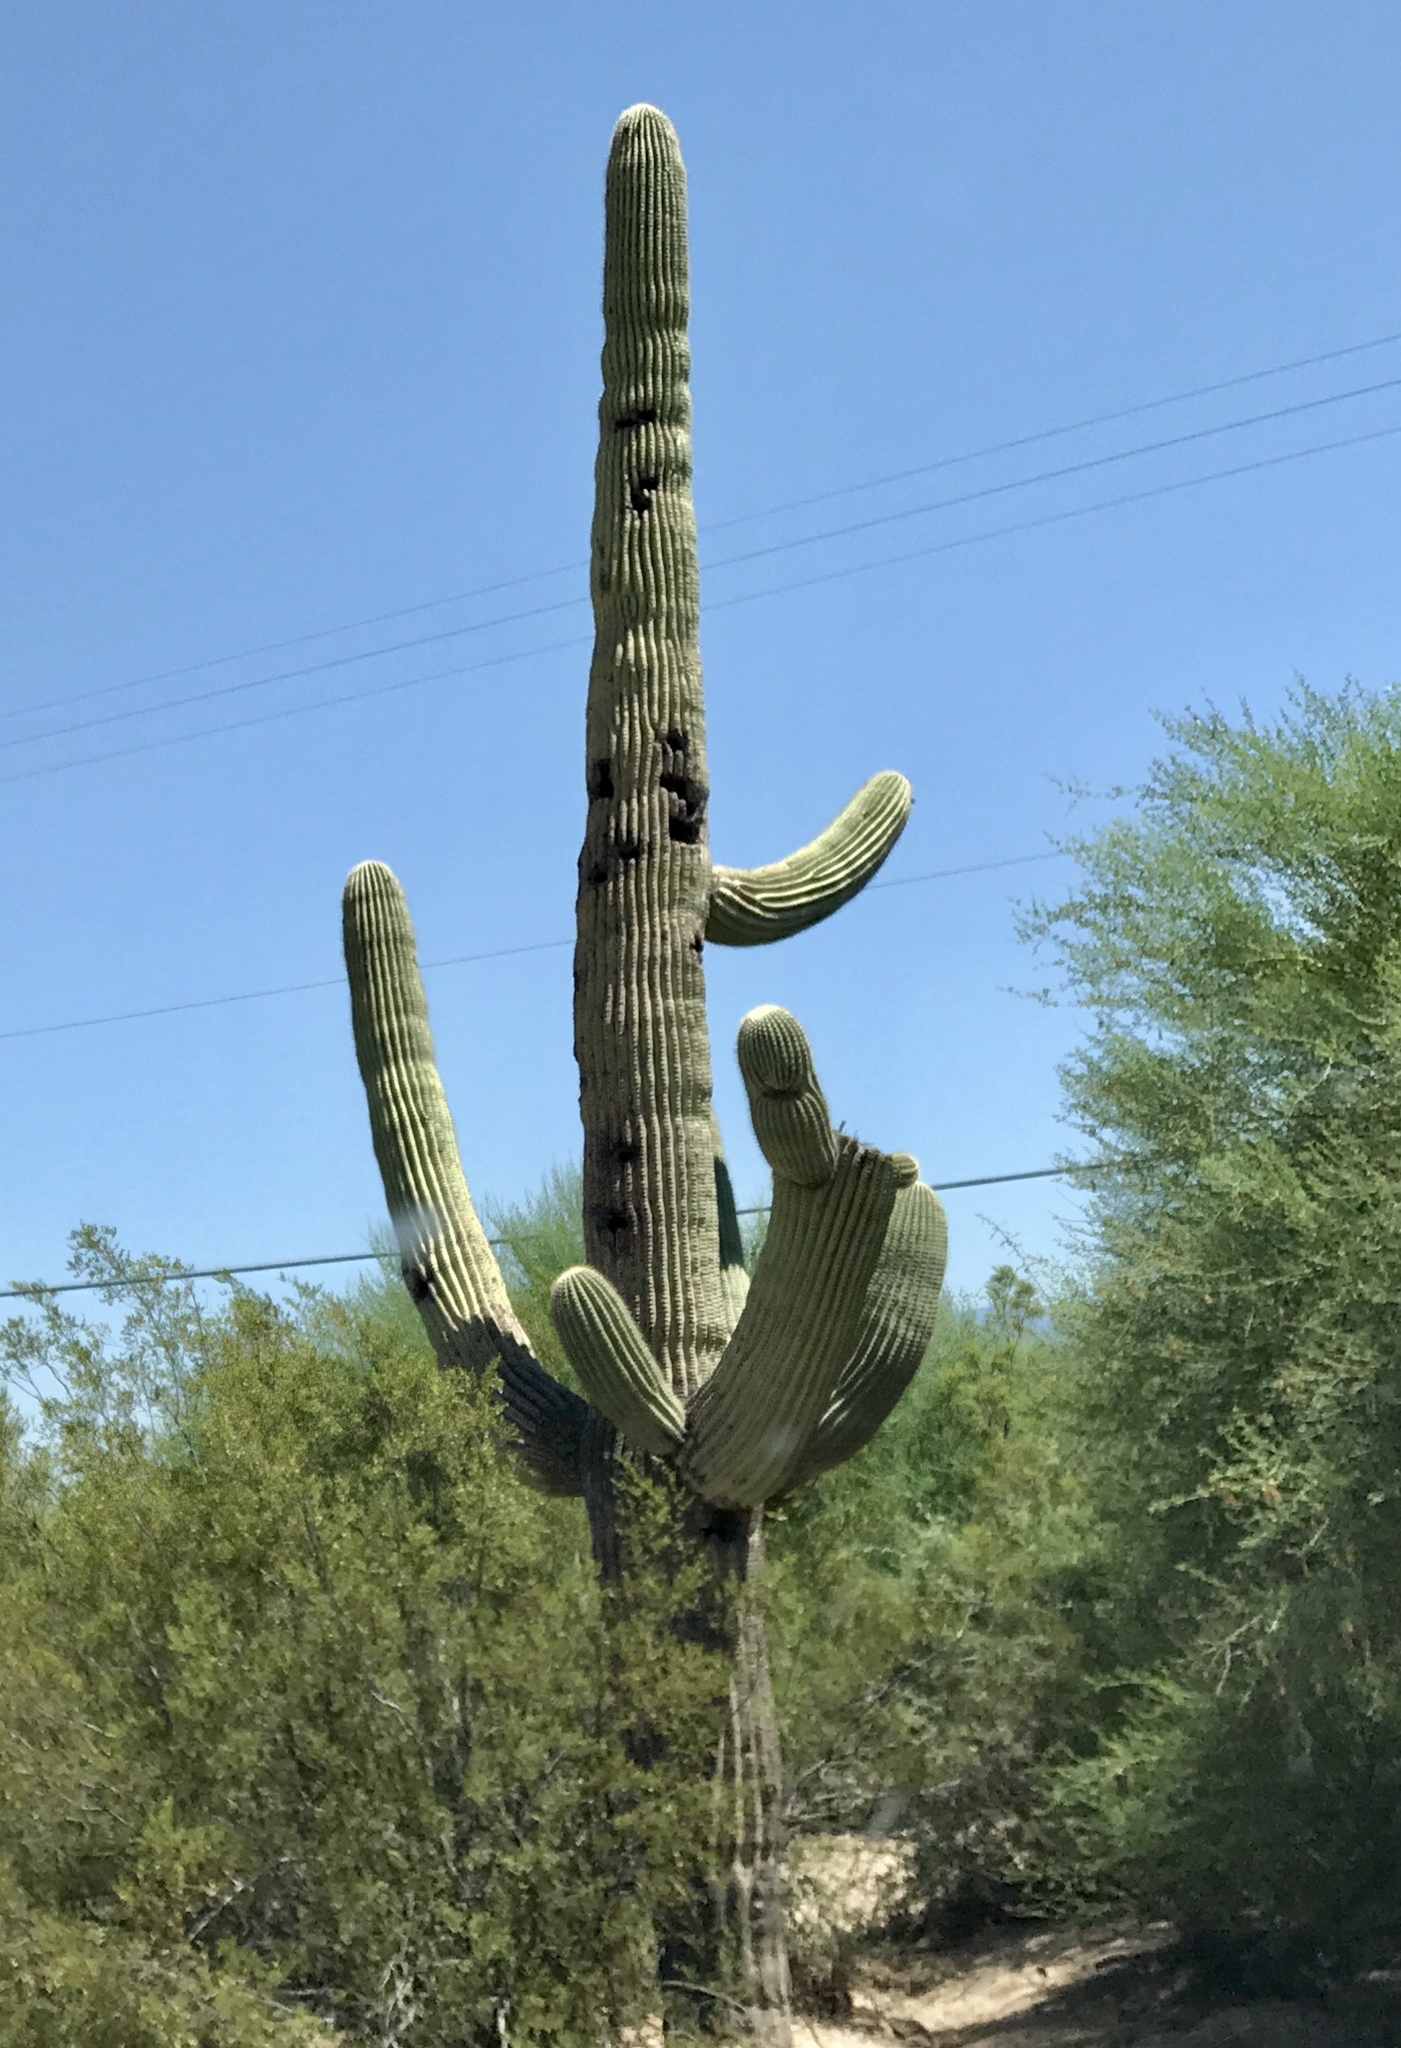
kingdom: Plantae
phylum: Tracheophyta
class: Magnoliopsida
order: Caryophyllales
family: Cactaceae
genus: Carnegiea
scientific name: Carnegiea gigantea
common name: Saguaro
